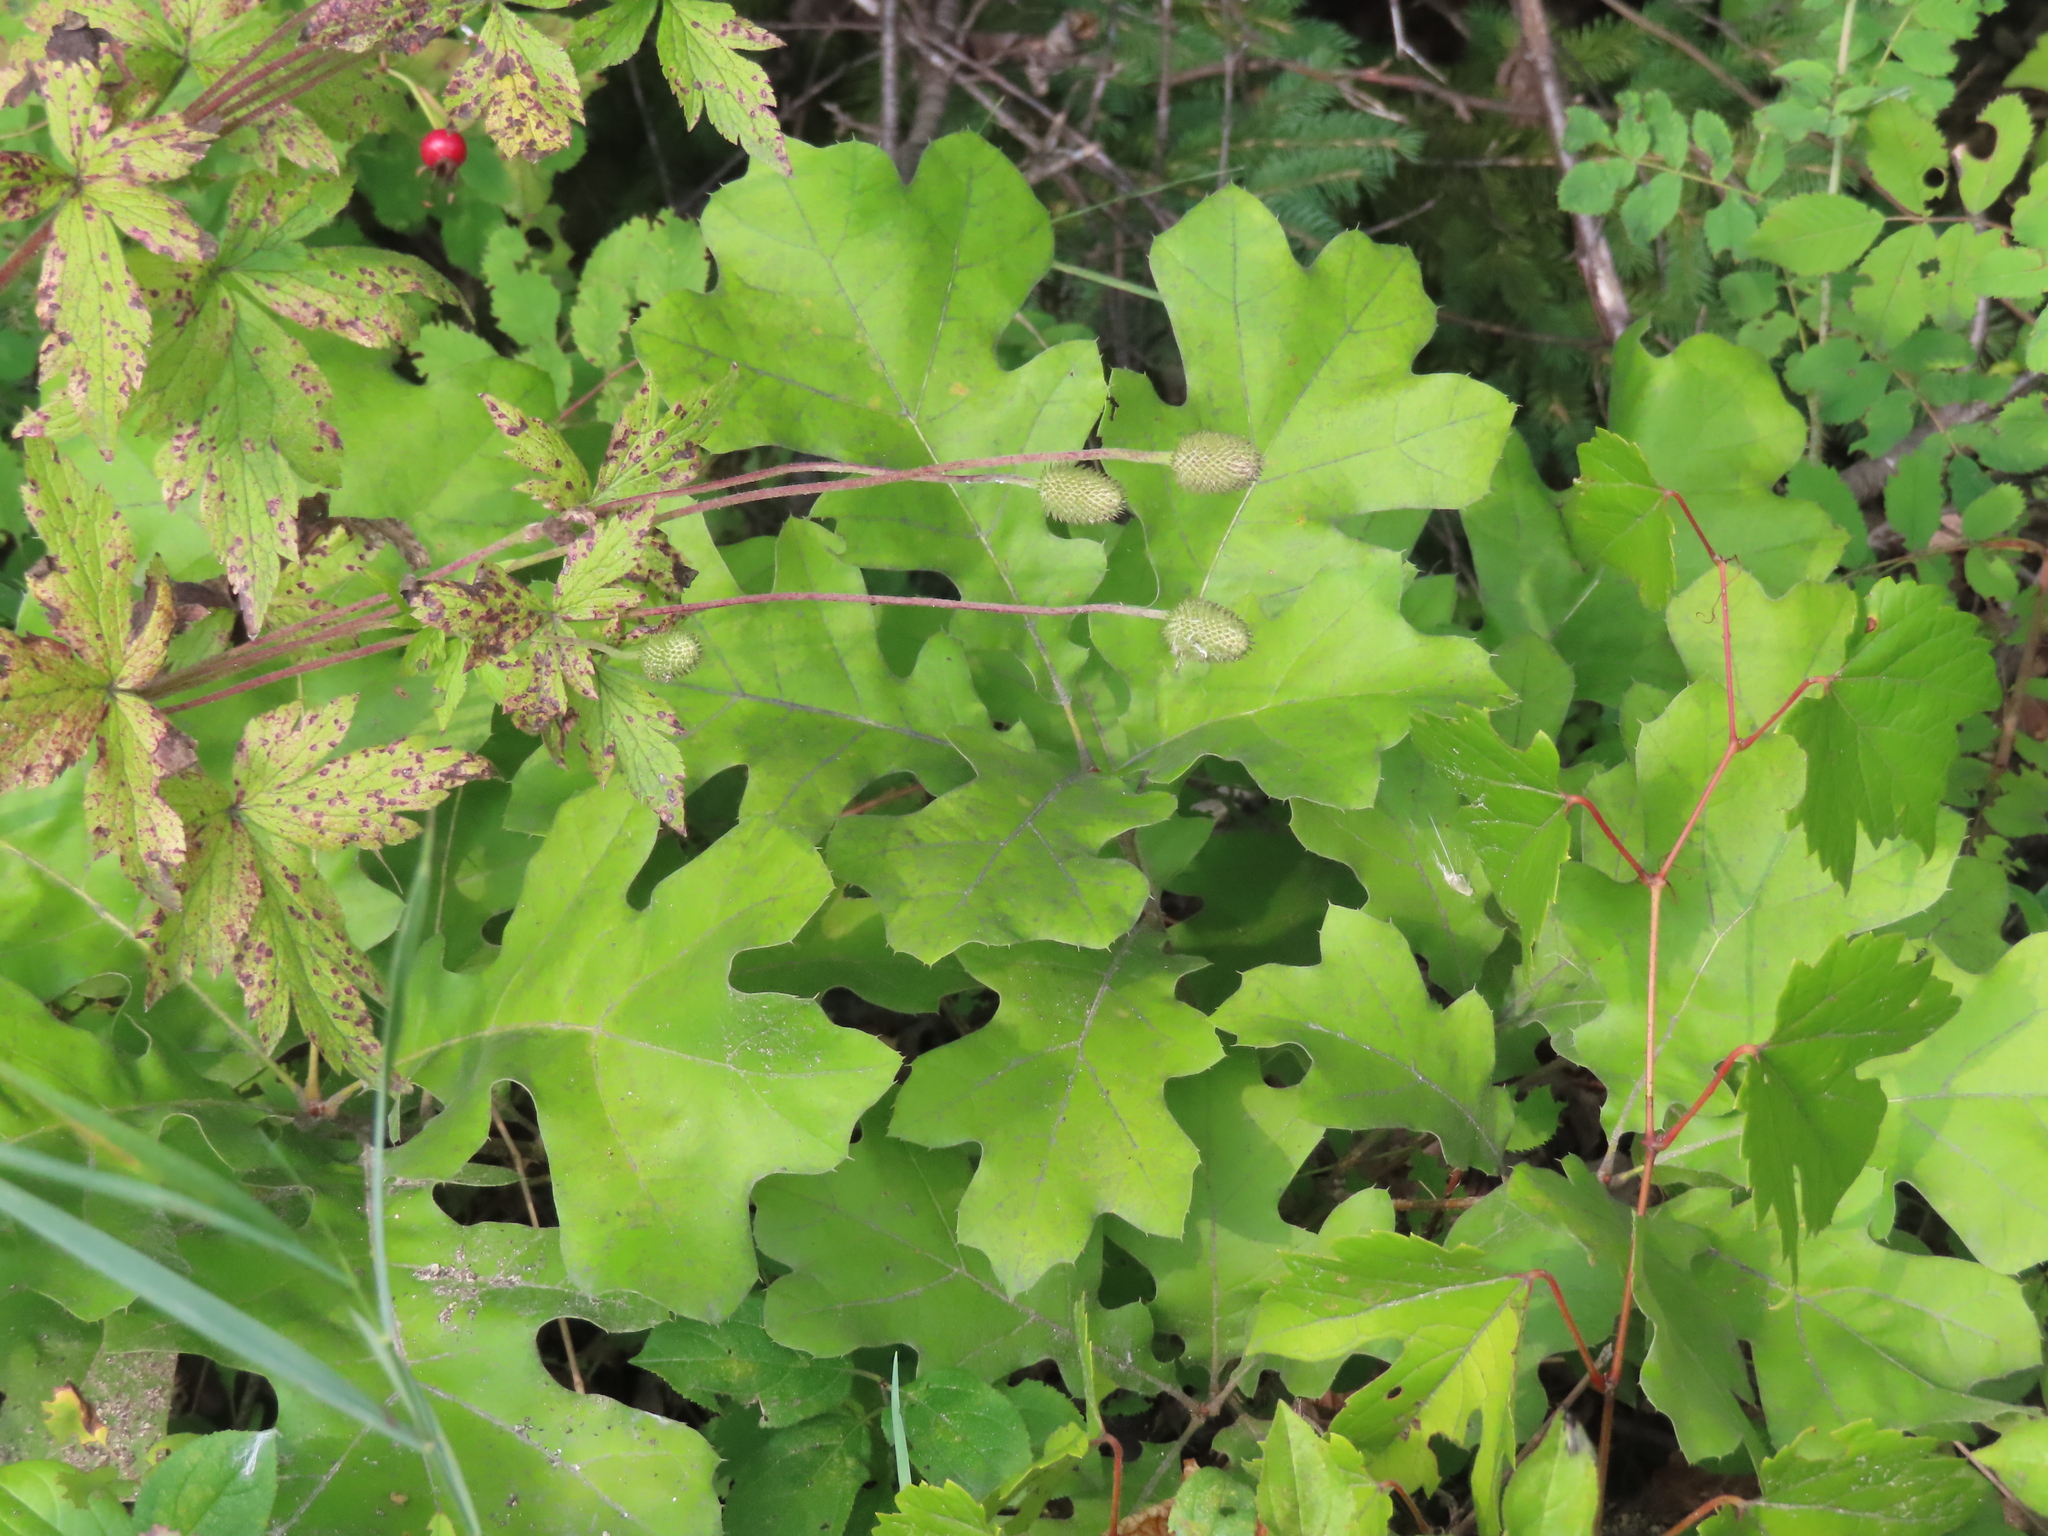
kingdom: Plantae
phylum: Tracheophyta
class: Magnoliopsida
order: Fagales
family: Fagaceae
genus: Quercus
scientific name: Quercus velutina
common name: Black oak
